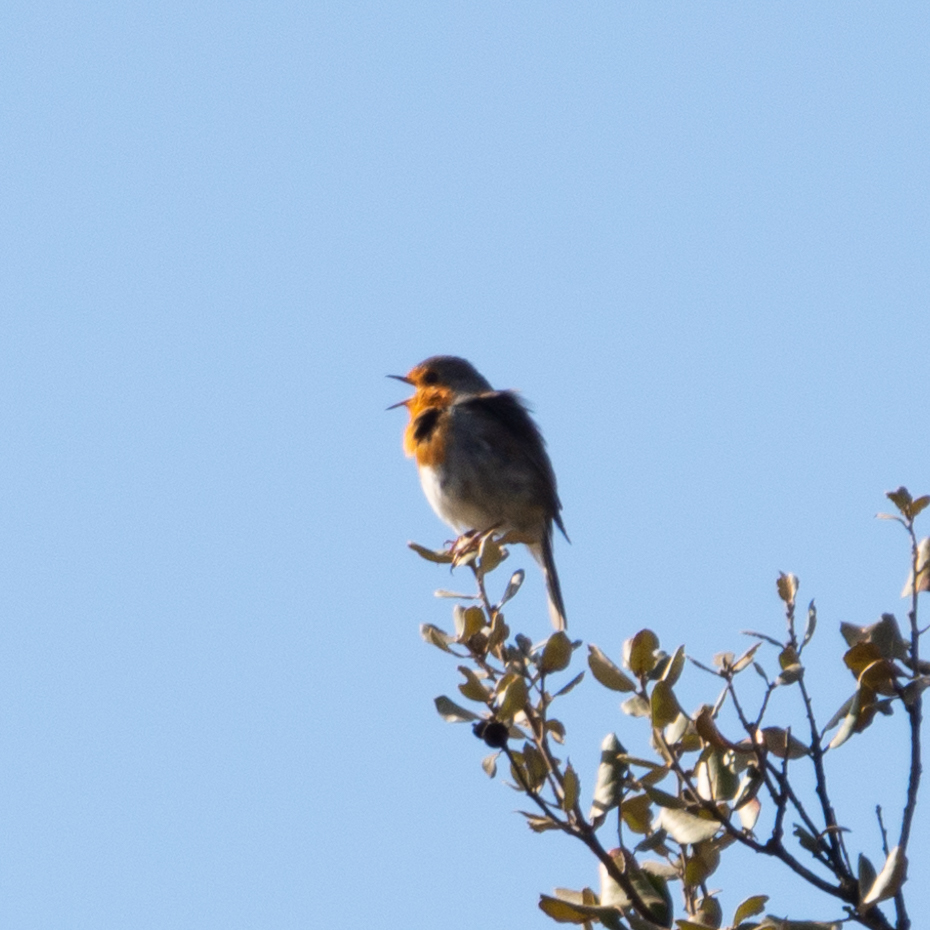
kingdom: Animalia
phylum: Chordata
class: Aves
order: Passeriformes
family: Muscicapidae
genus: Erithacus
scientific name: Erithacus rubecula
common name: European robin
